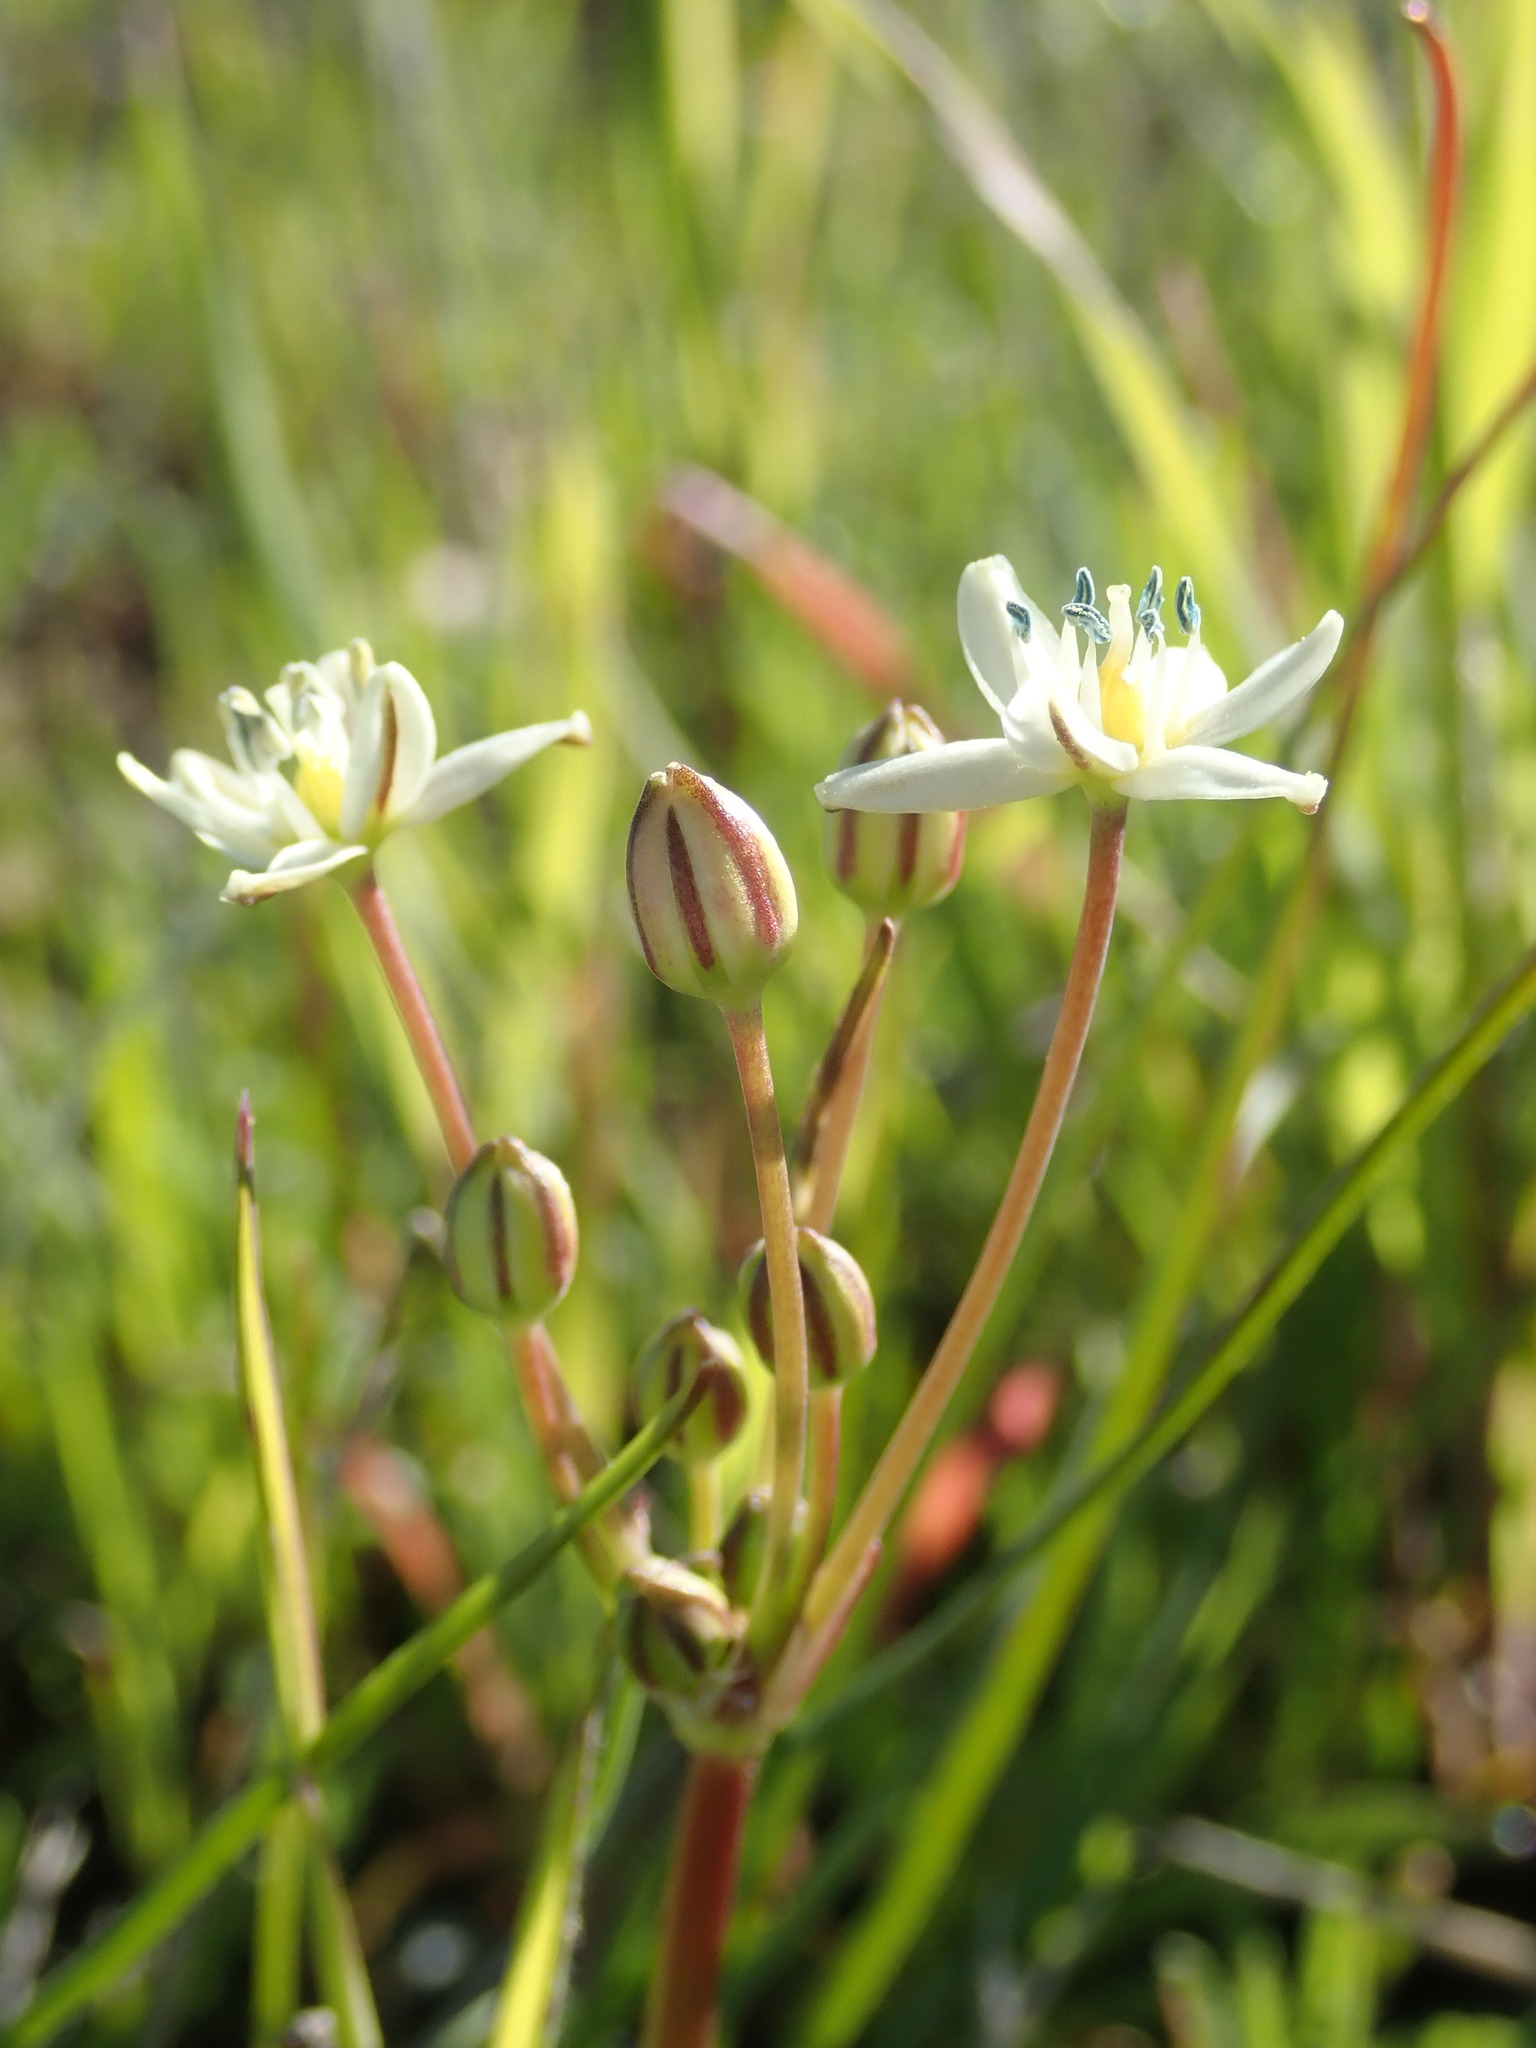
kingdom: Plantae
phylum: Tracheophyta
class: Liliopsida
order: Asparagales
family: Asparagaceae
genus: Muilla
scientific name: Muilla maritima
